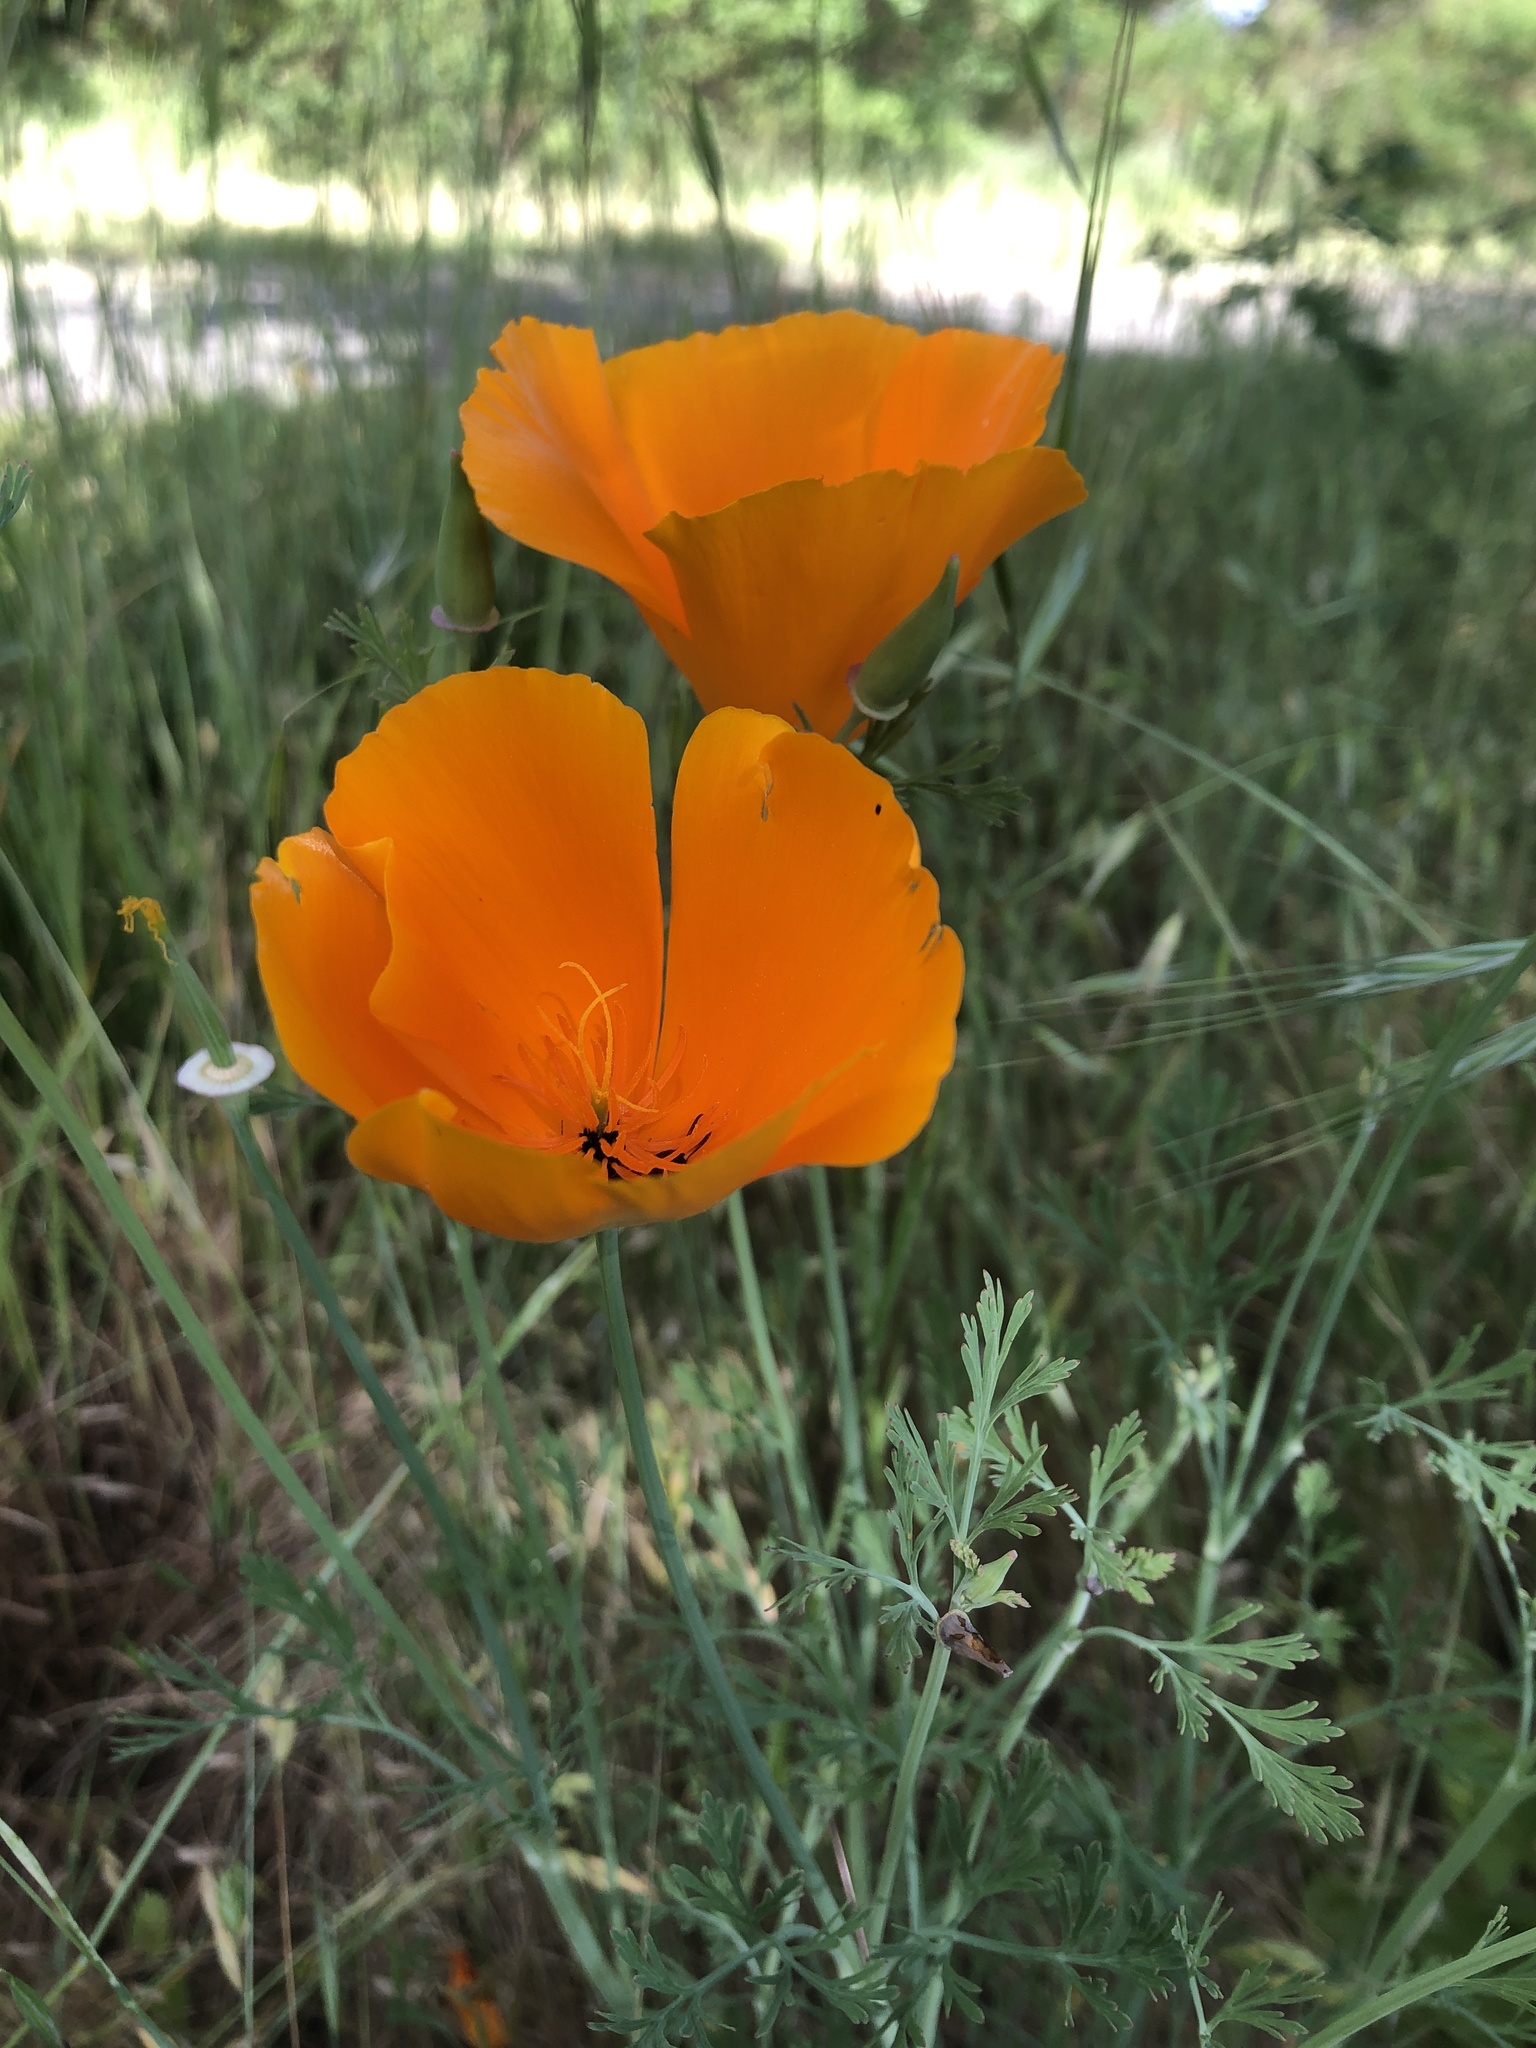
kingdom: Plantae
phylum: Tracheophyta
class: Magnoliopsida
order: Ranunculales
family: Papaveraceae
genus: Eschscholzia
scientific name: Eschscholzia californica
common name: California poppy
